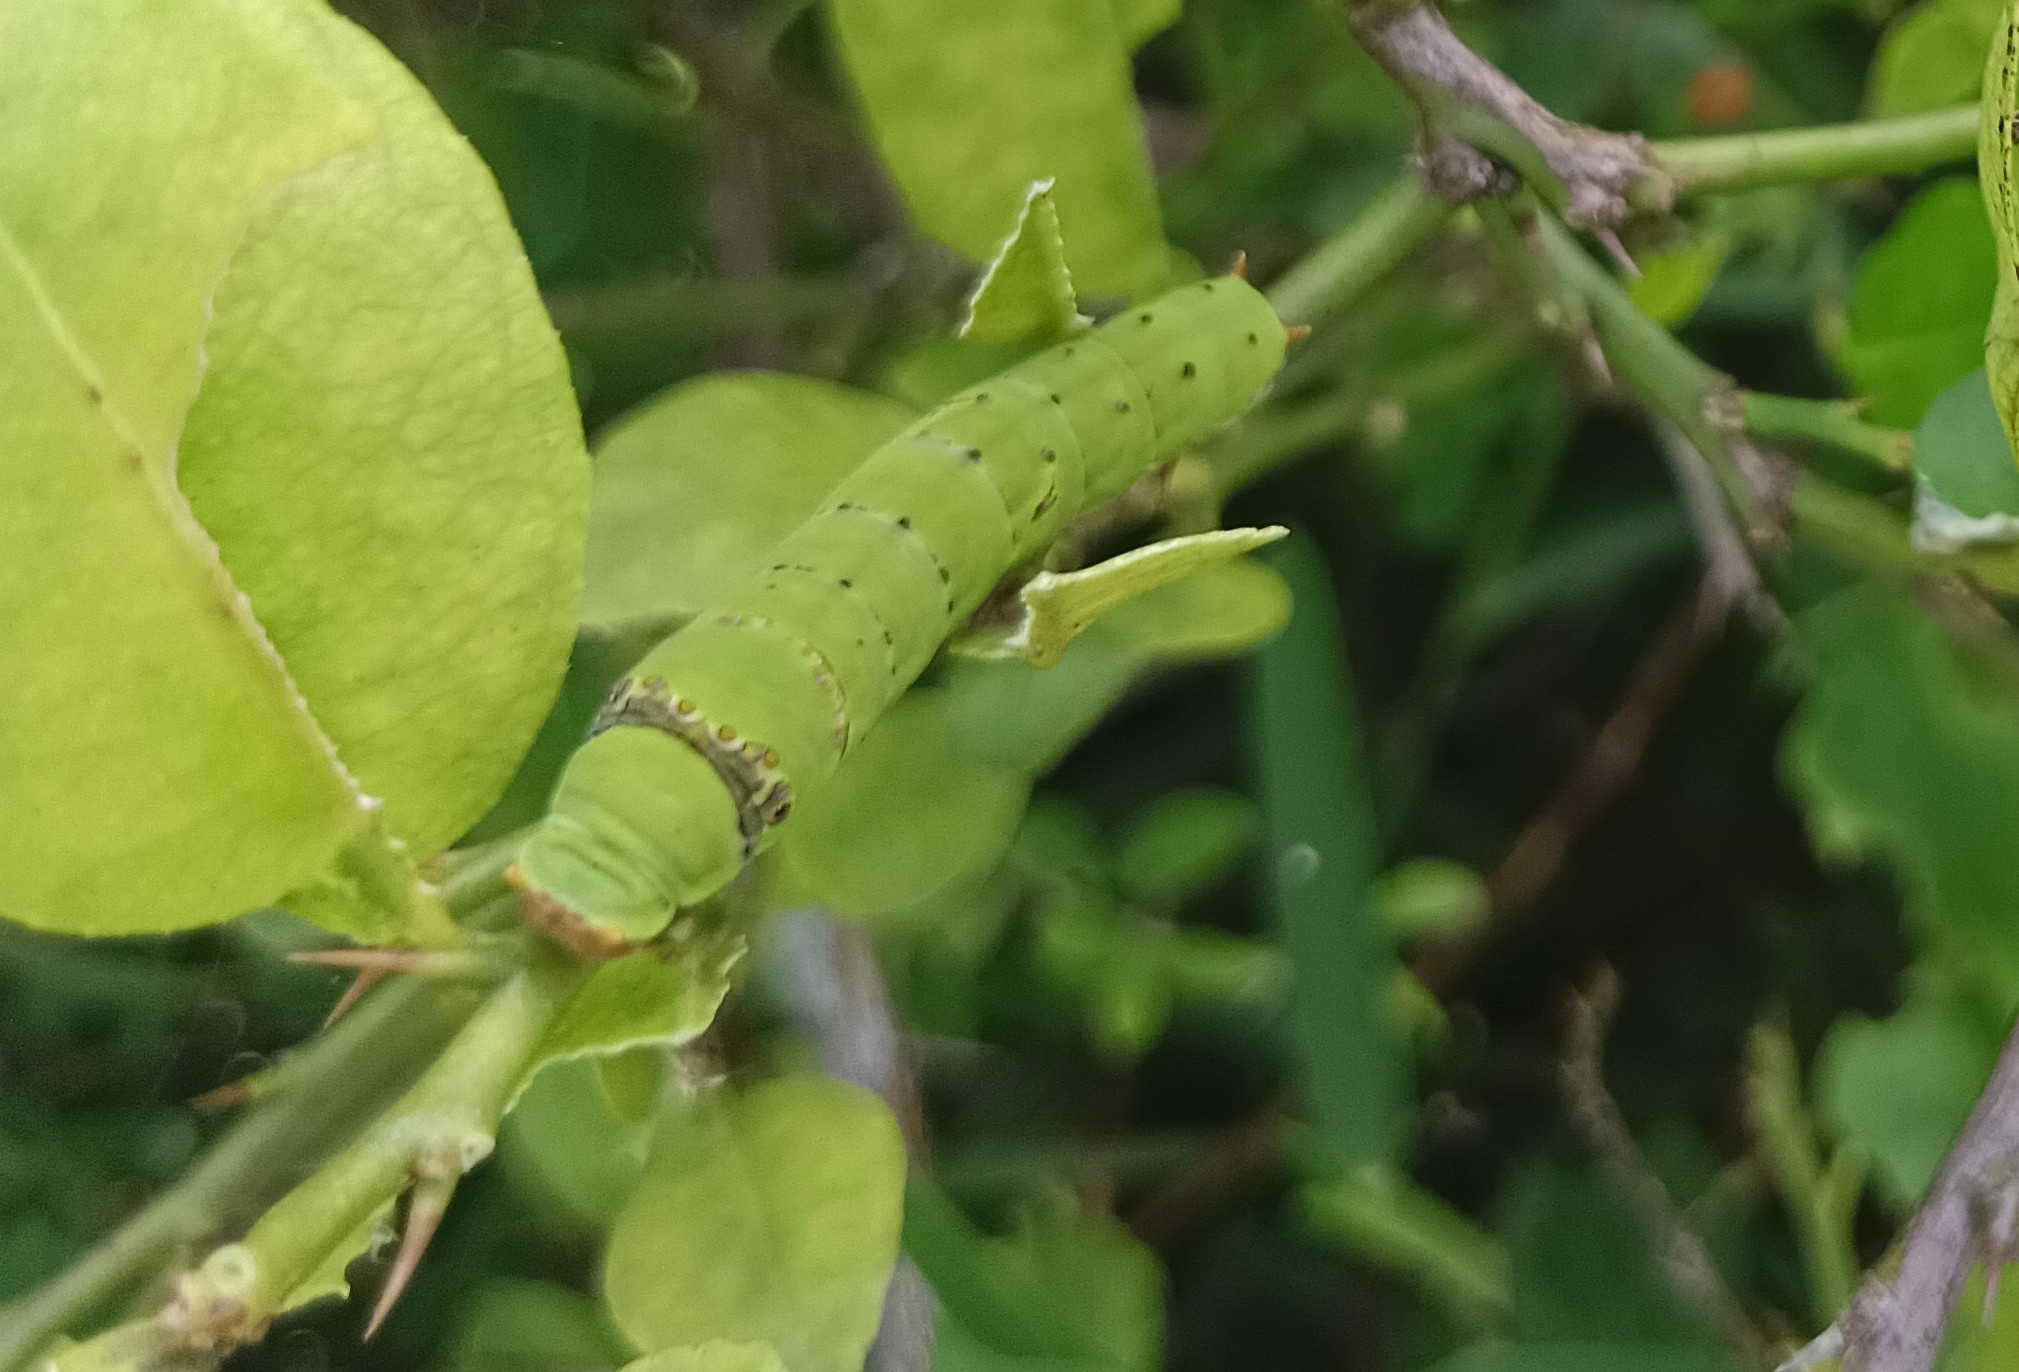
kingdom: Animalia
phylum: Arthropoda
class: Insecta
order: Lepidoptera
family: Papilionidae
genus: Papilio
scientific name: Papilio demoleus
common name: Lime butterfly
